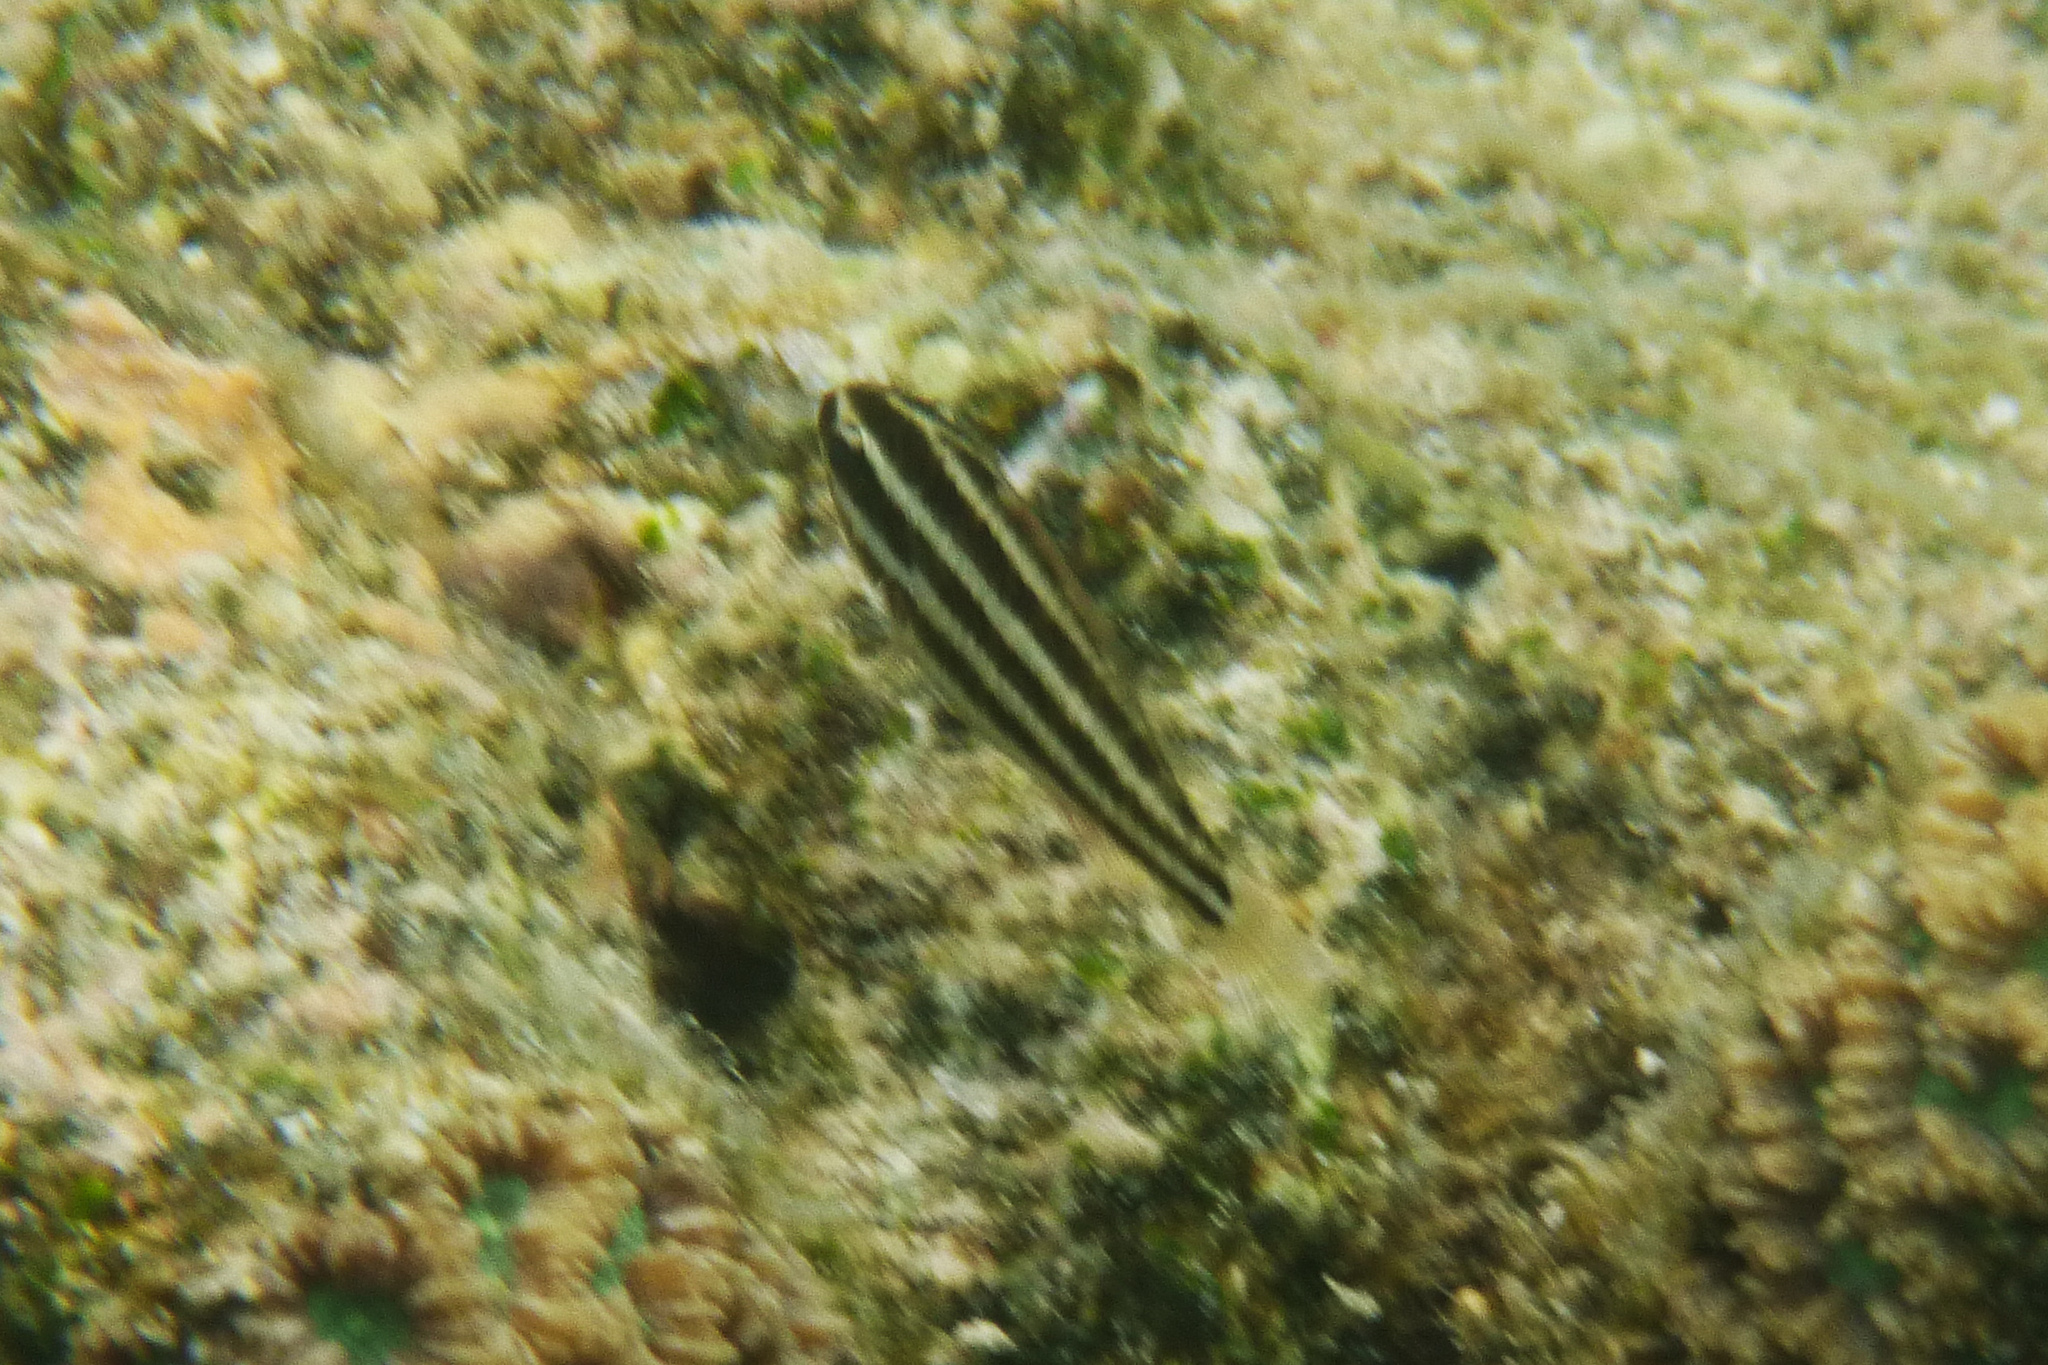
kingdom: Animalia
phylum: Chordata
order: Perciformes
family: Apogonidae
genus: Ostorhinchus
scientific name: Ostorhinchus nigrofasciatus
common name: Blackstripe cardinalfish
